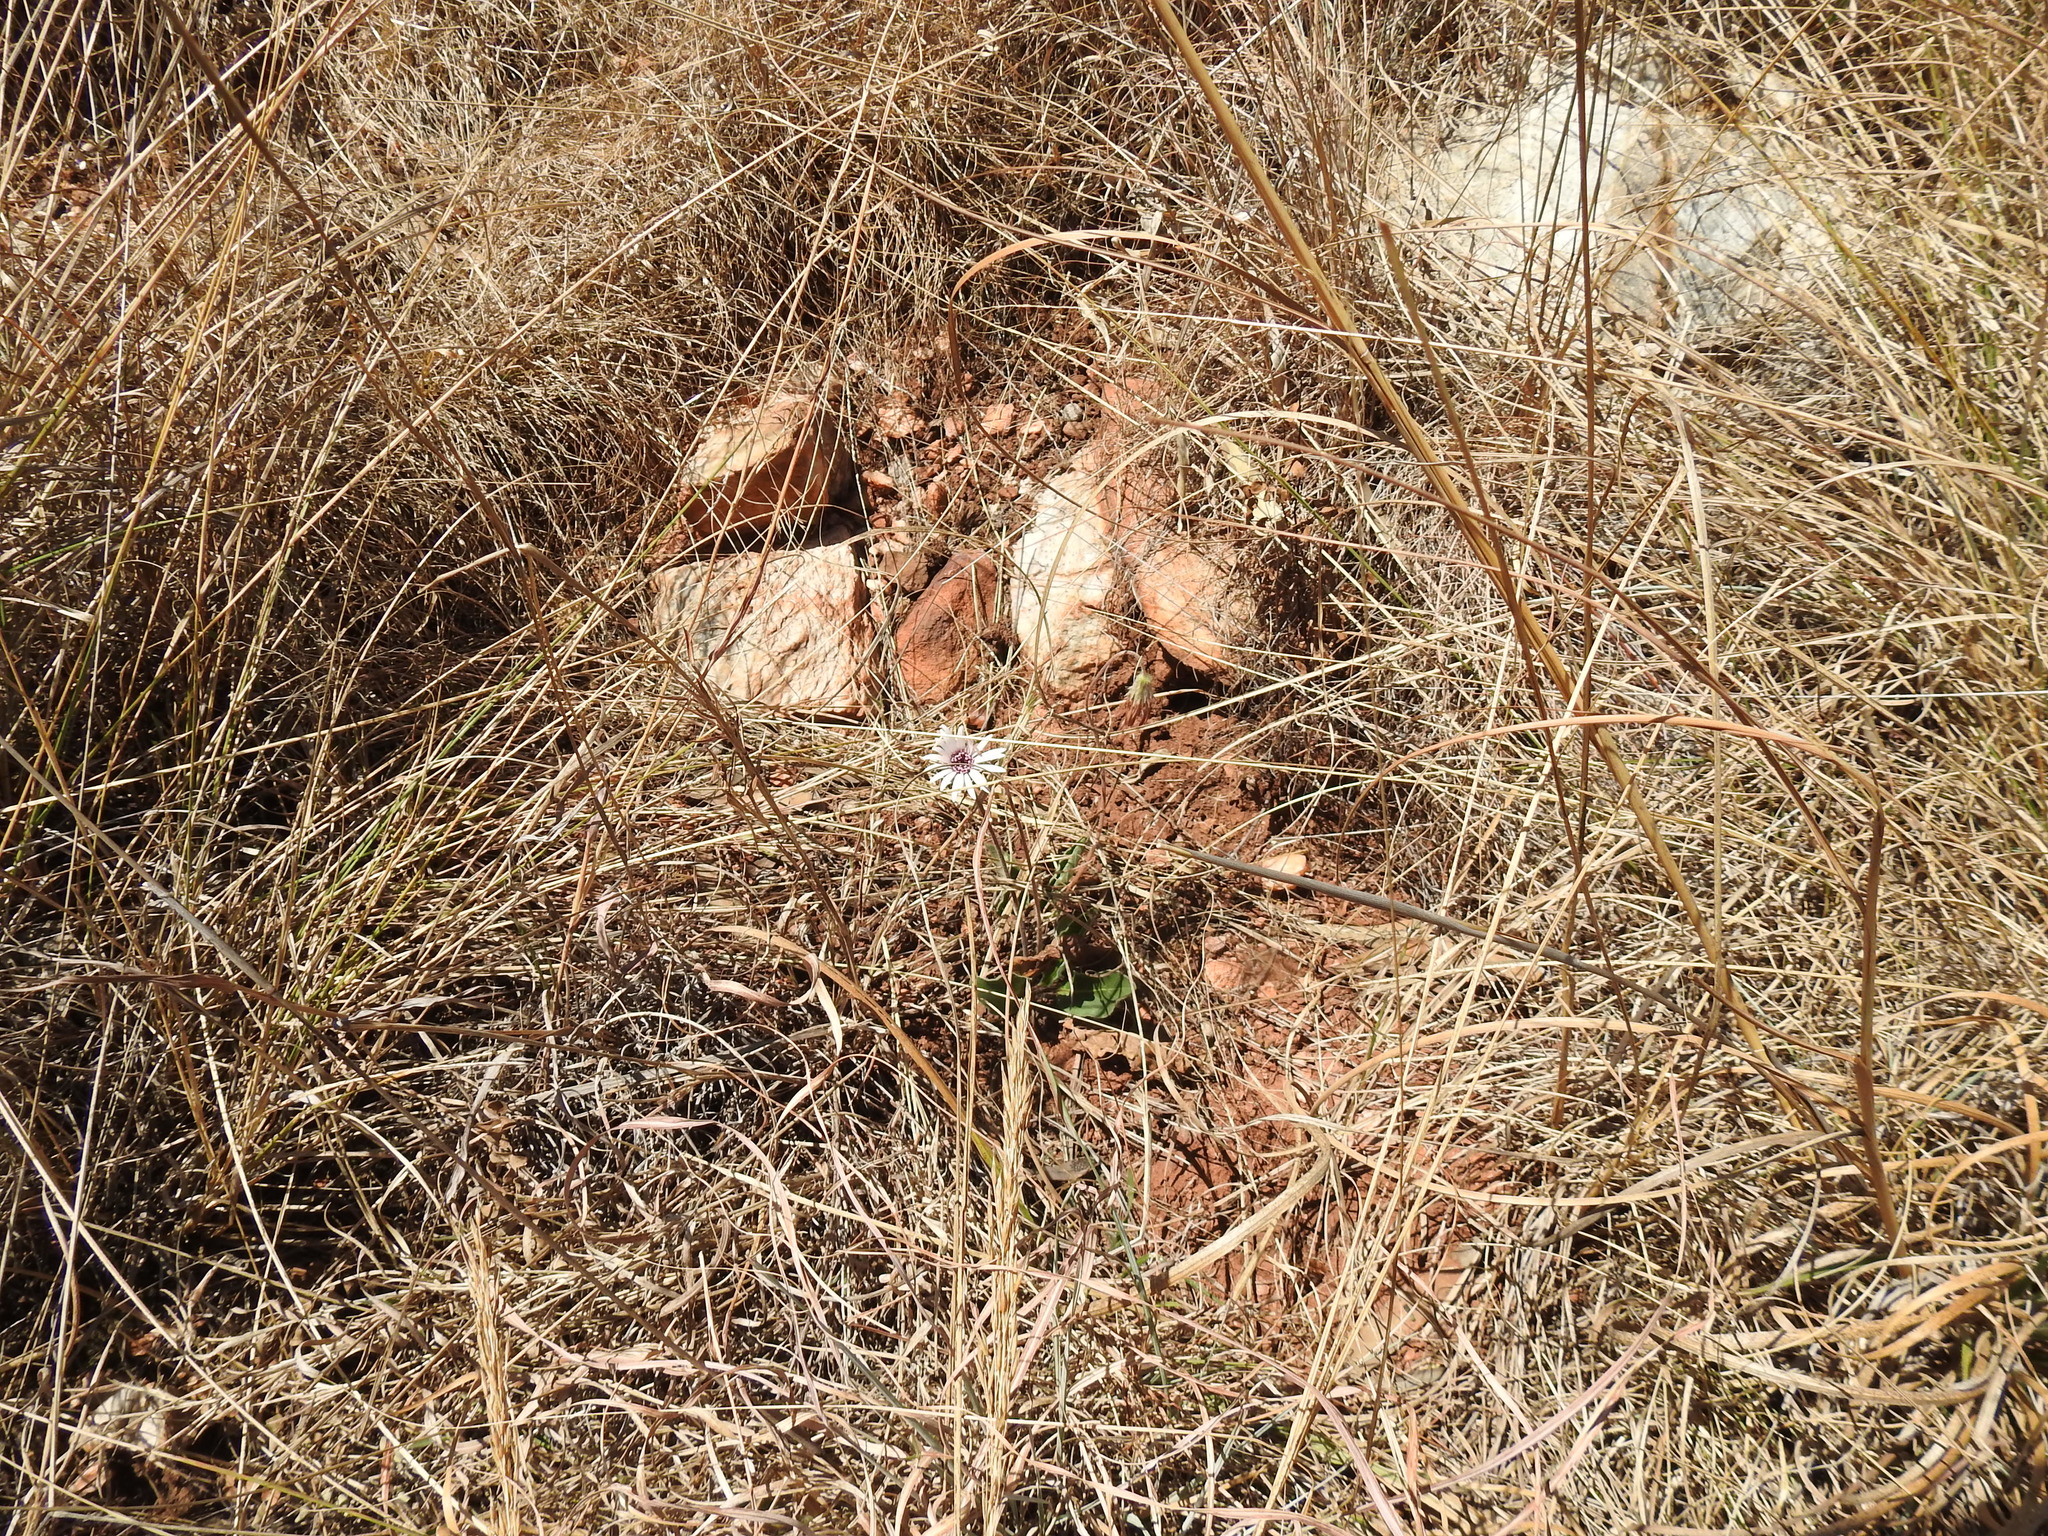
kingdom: Plantae
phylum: Tracheophyta
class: Magnoliopsida
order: Asterales
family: Asteraceae
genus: Gerbera
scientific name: Gerbera viridifolia
